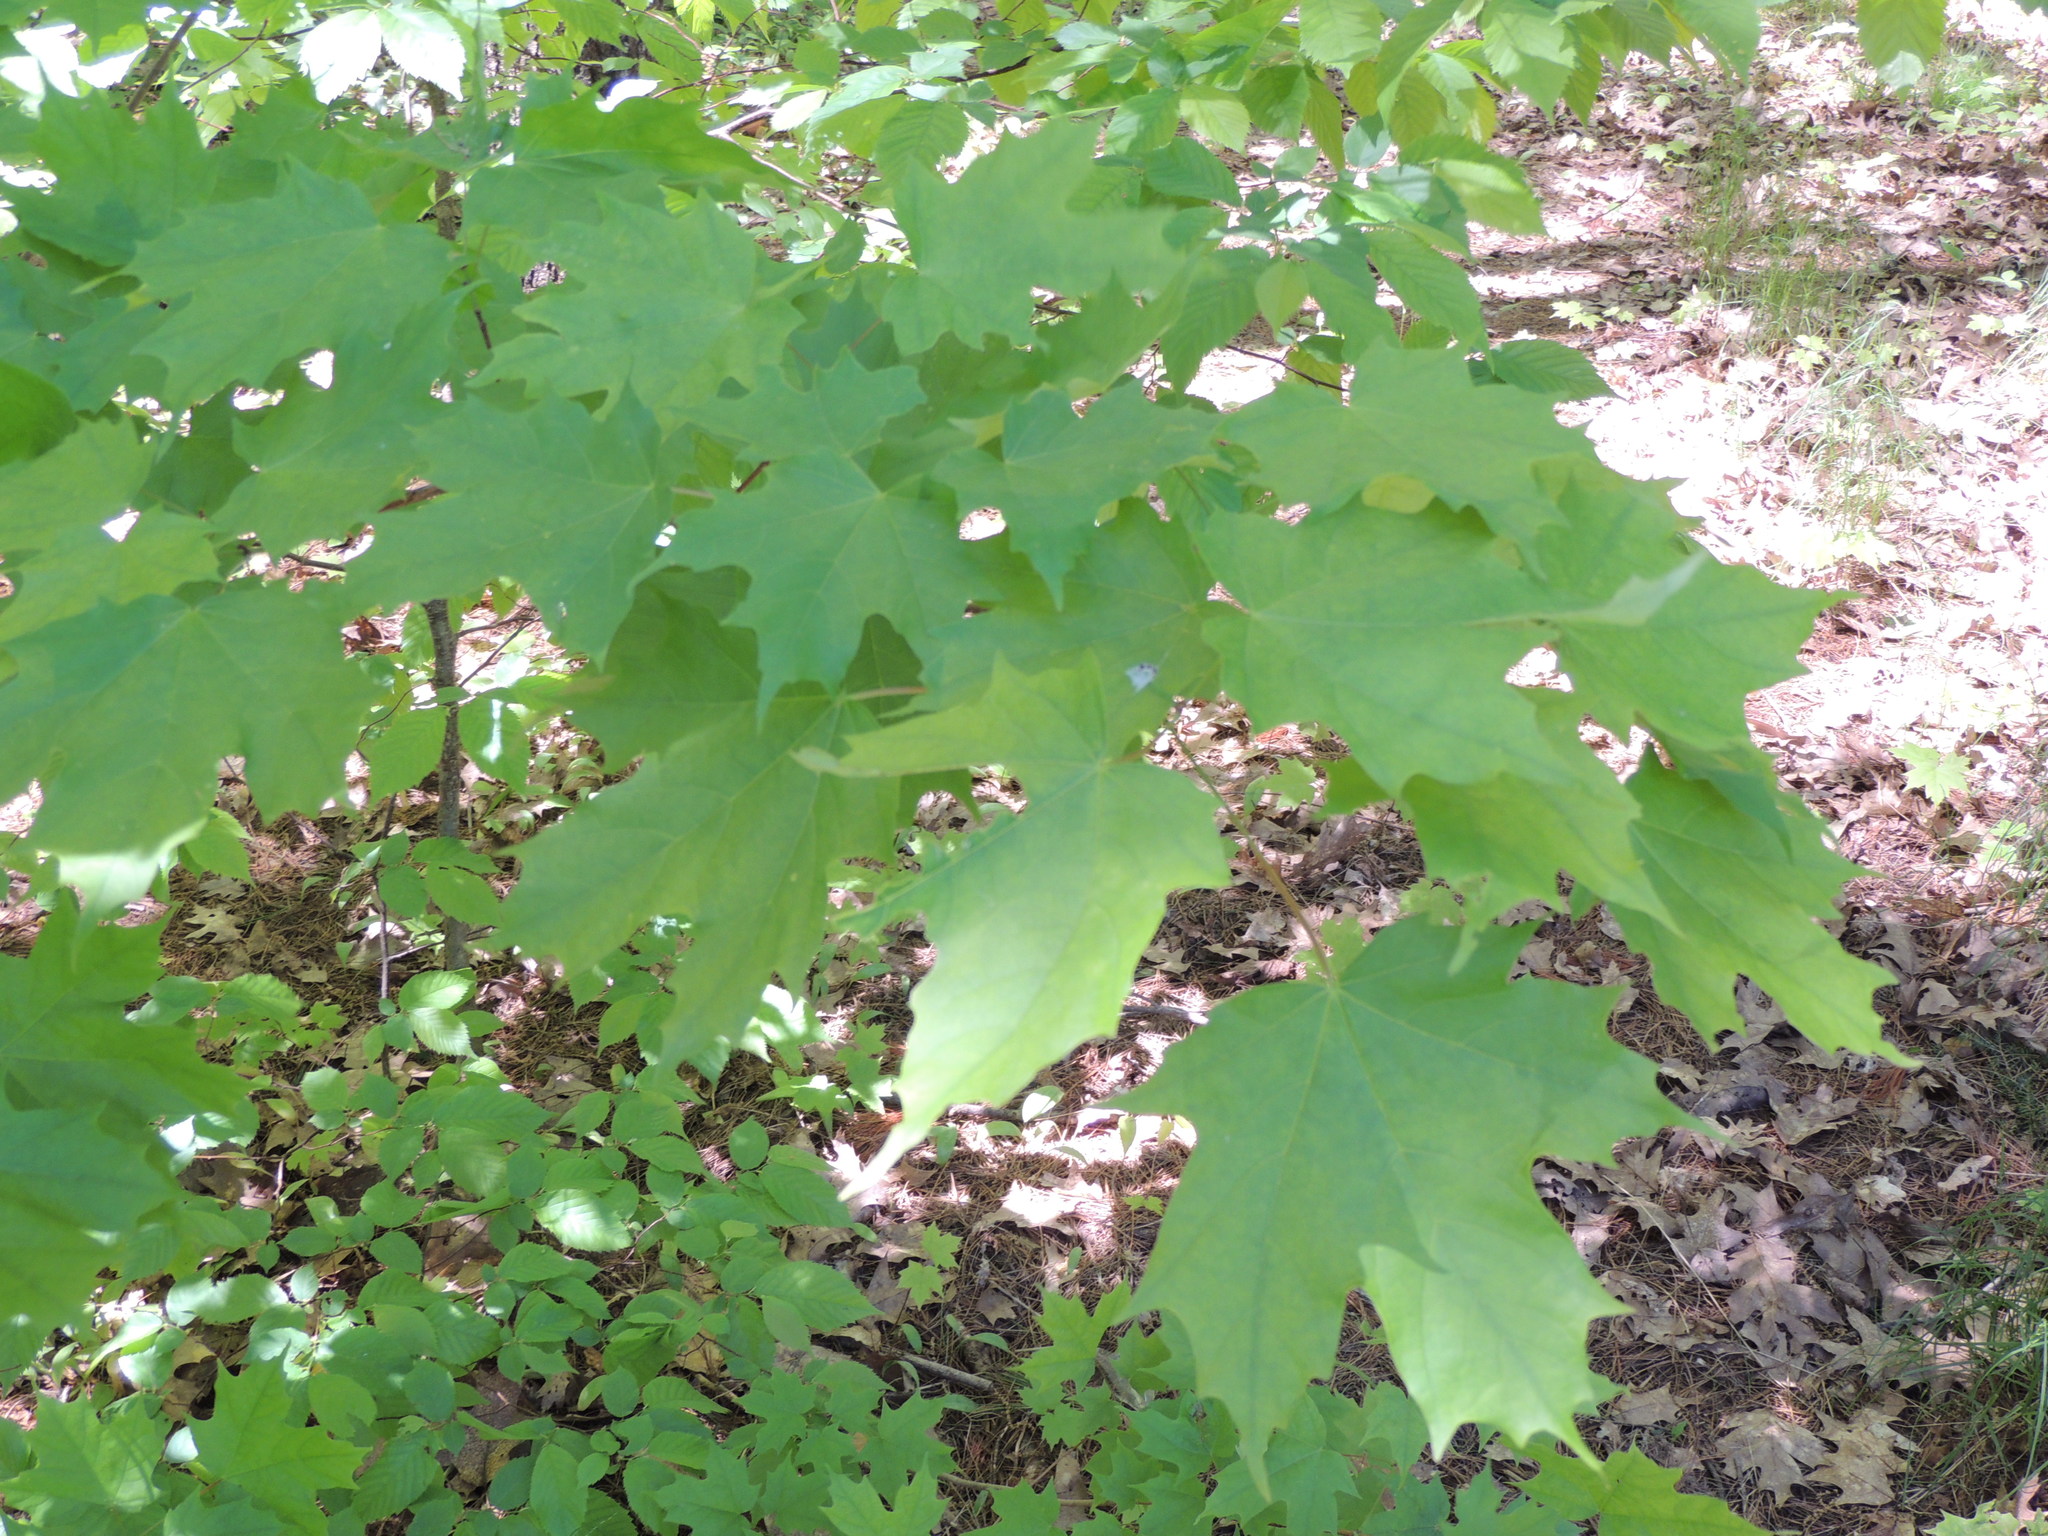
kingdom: Plantae
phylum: Tracheophyta
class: Magnoliopsida
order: Sapindales
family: Sapindaceae
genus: Acer
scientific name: Acer saccharum
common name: Sugar maple
